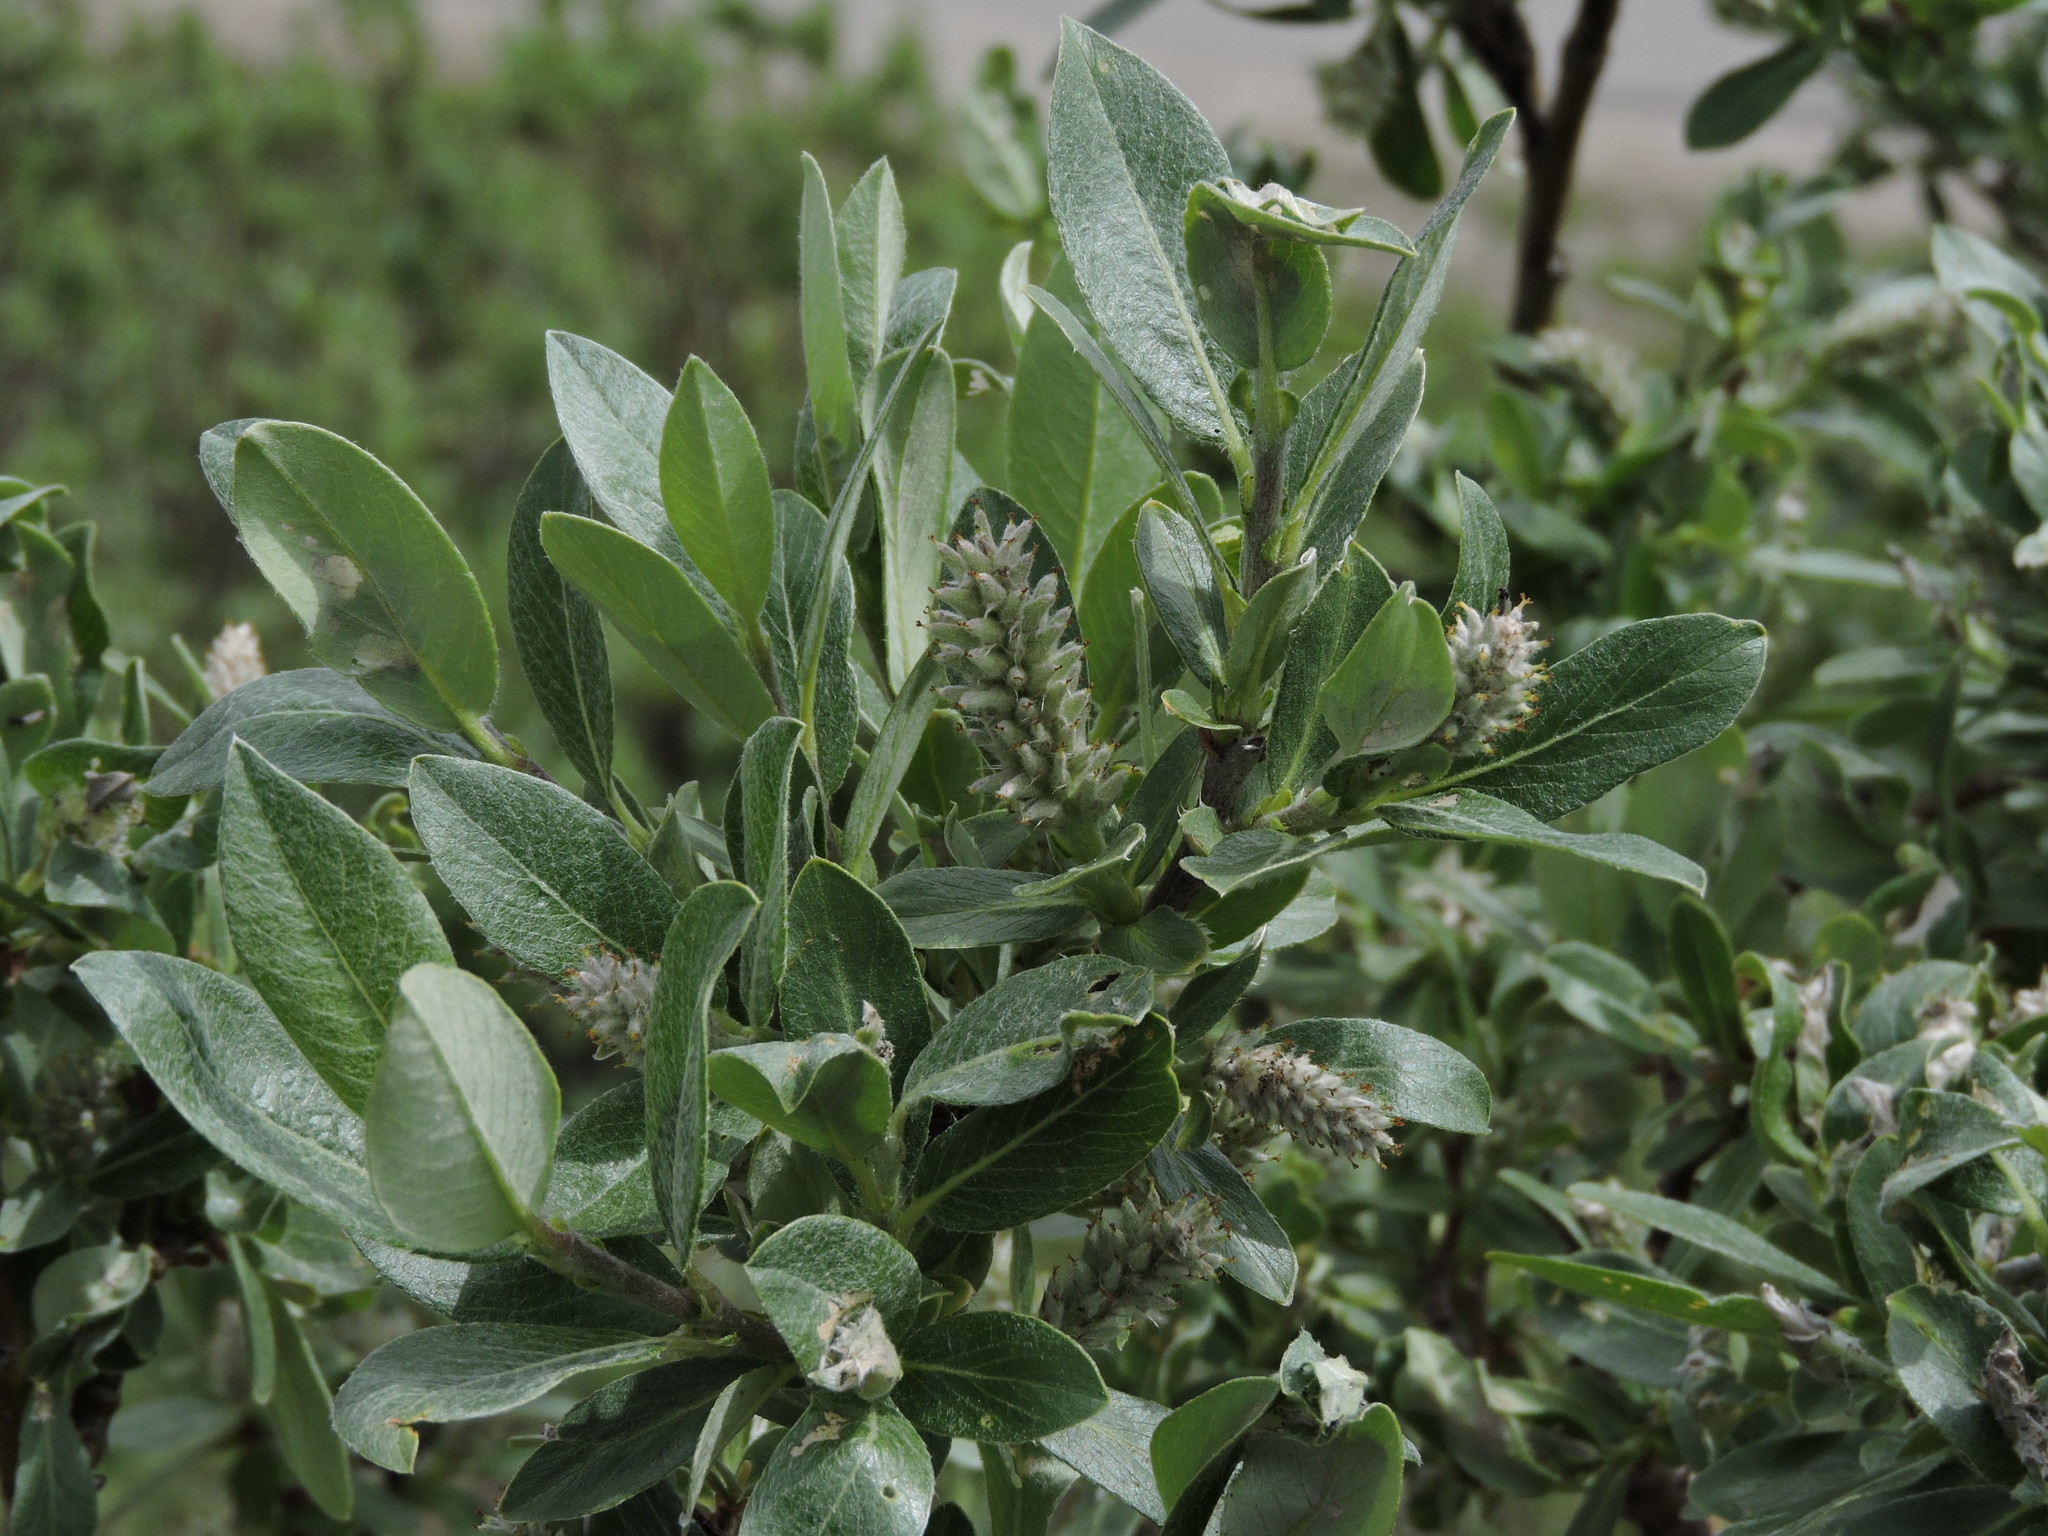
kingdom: Plantae
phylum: Tracheophyta
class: Magnoliopsida
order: Malpighiales
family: Salicaceae
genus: Salix
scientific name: Salix barrattiana
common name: Barratt's willow
